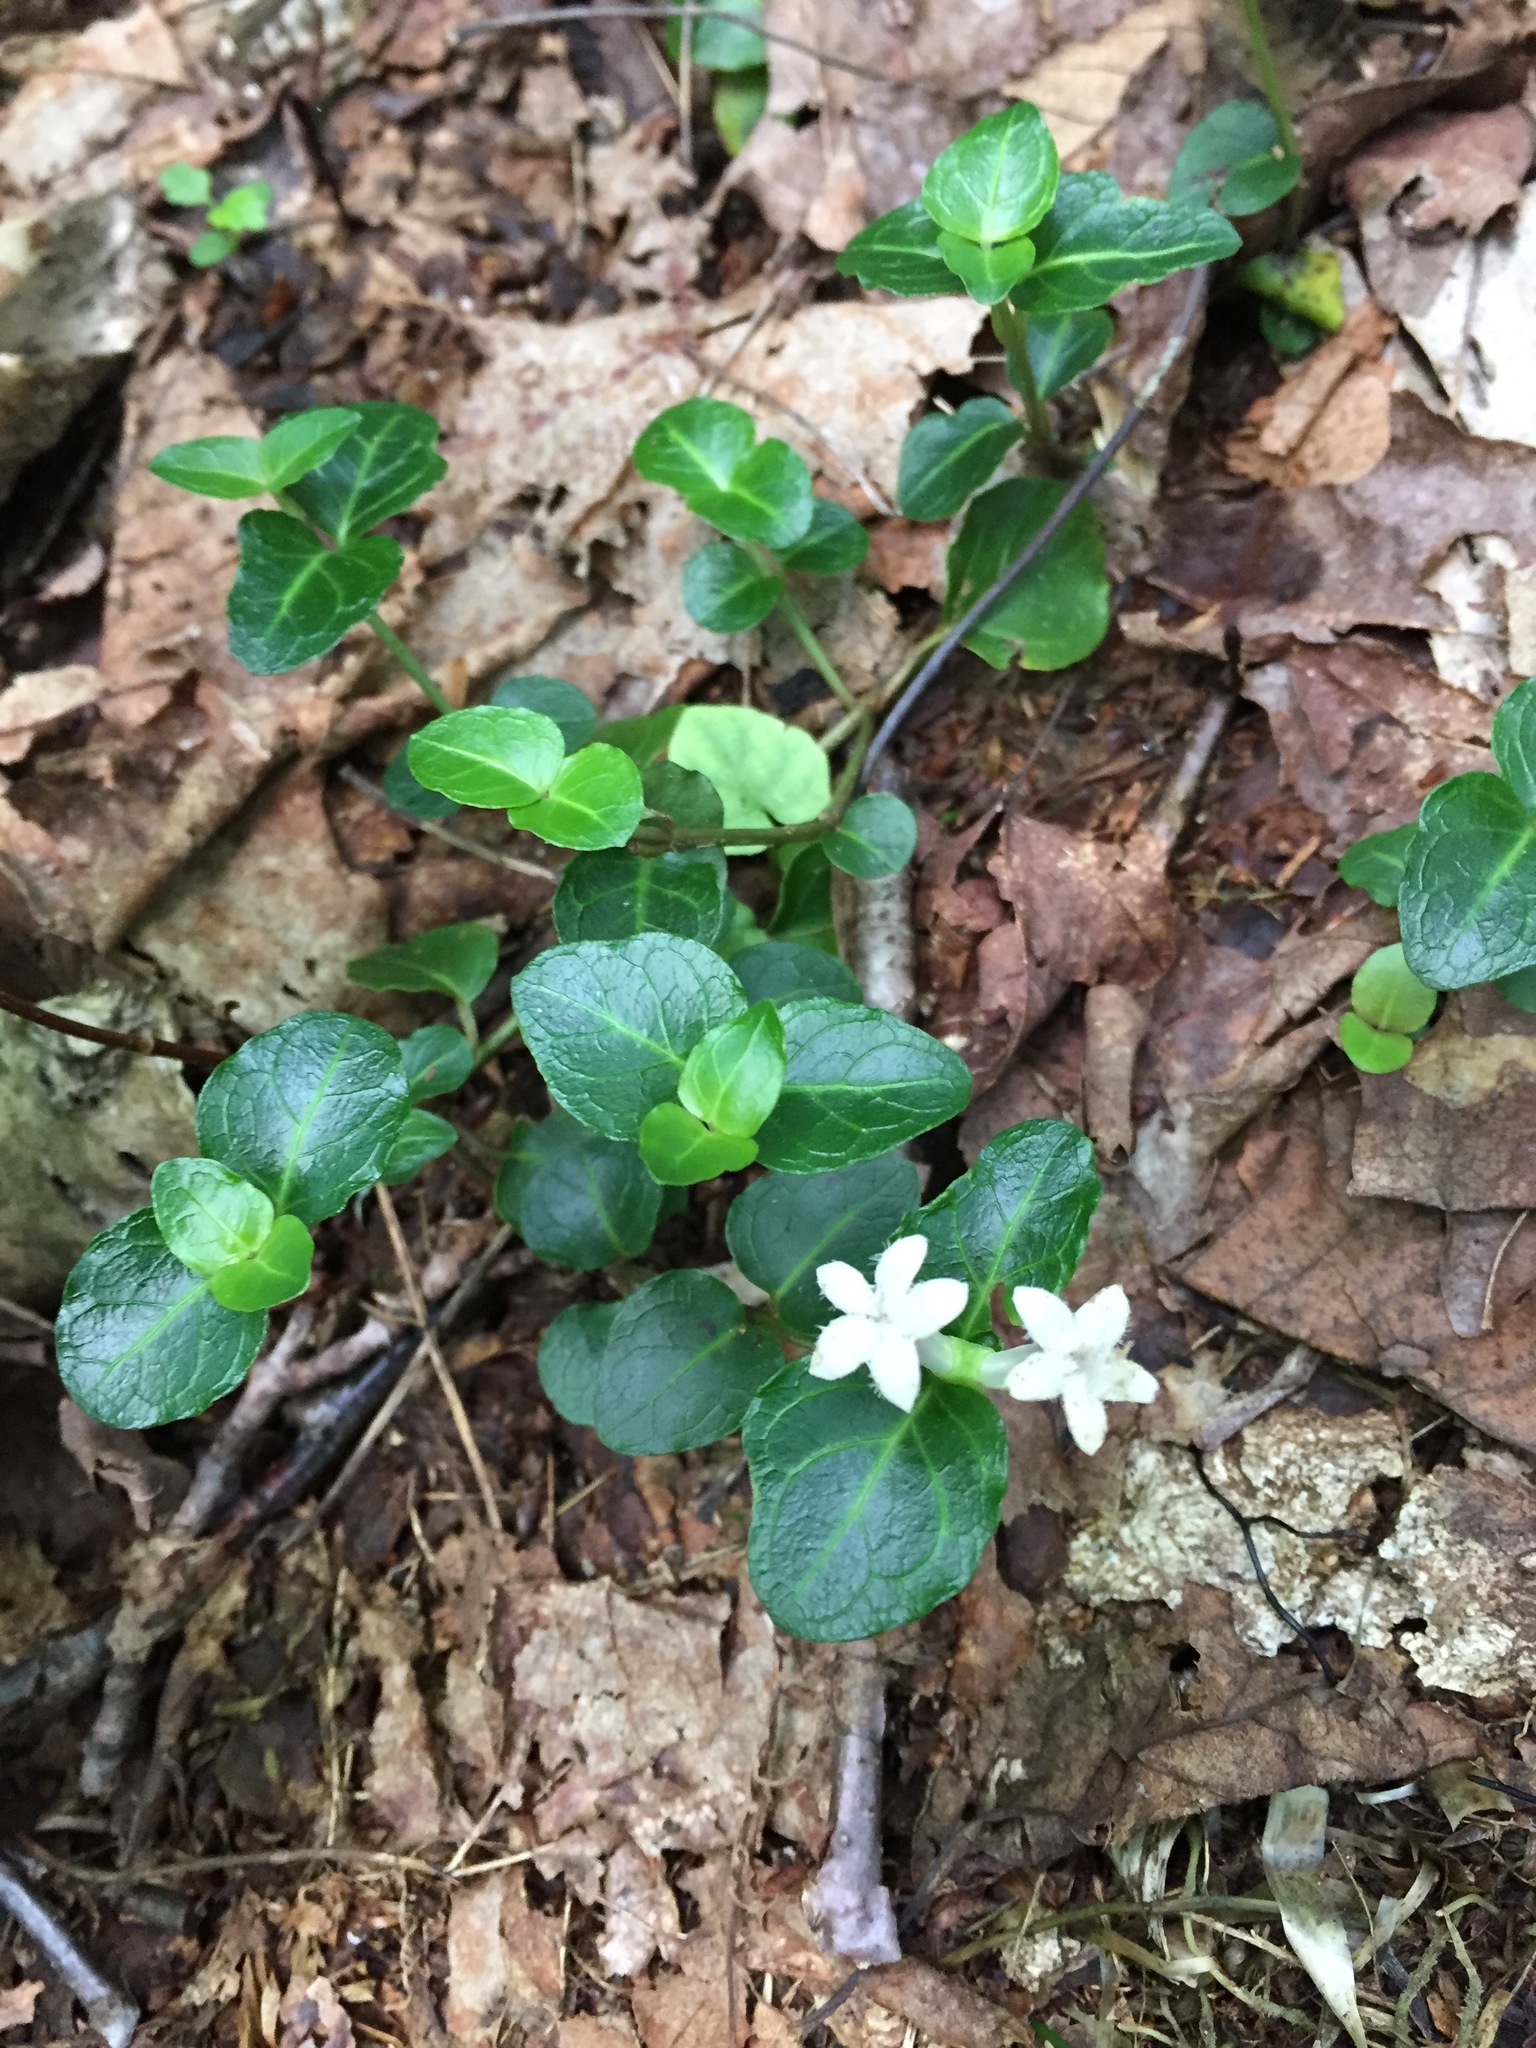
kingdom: Plantae
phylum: Tracheophyta
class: Magnoliopsida
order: Gentianales
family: Rubiaceae
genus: Mitchella
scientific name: Mitchella repens
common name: Partridge-berry
